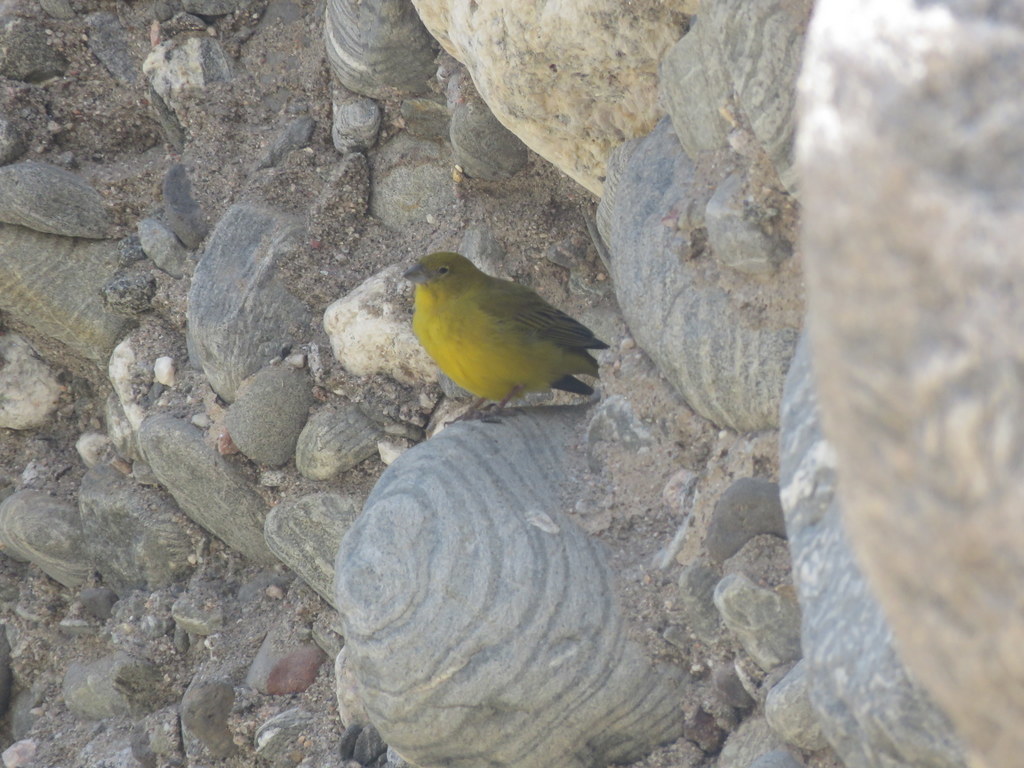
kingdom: Animalia
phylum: Chordata
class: Aves
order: Passeriformes
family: Thraupidae
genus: Sicalis
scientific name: Sicalis olivascens
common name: Greenish yellow finch
